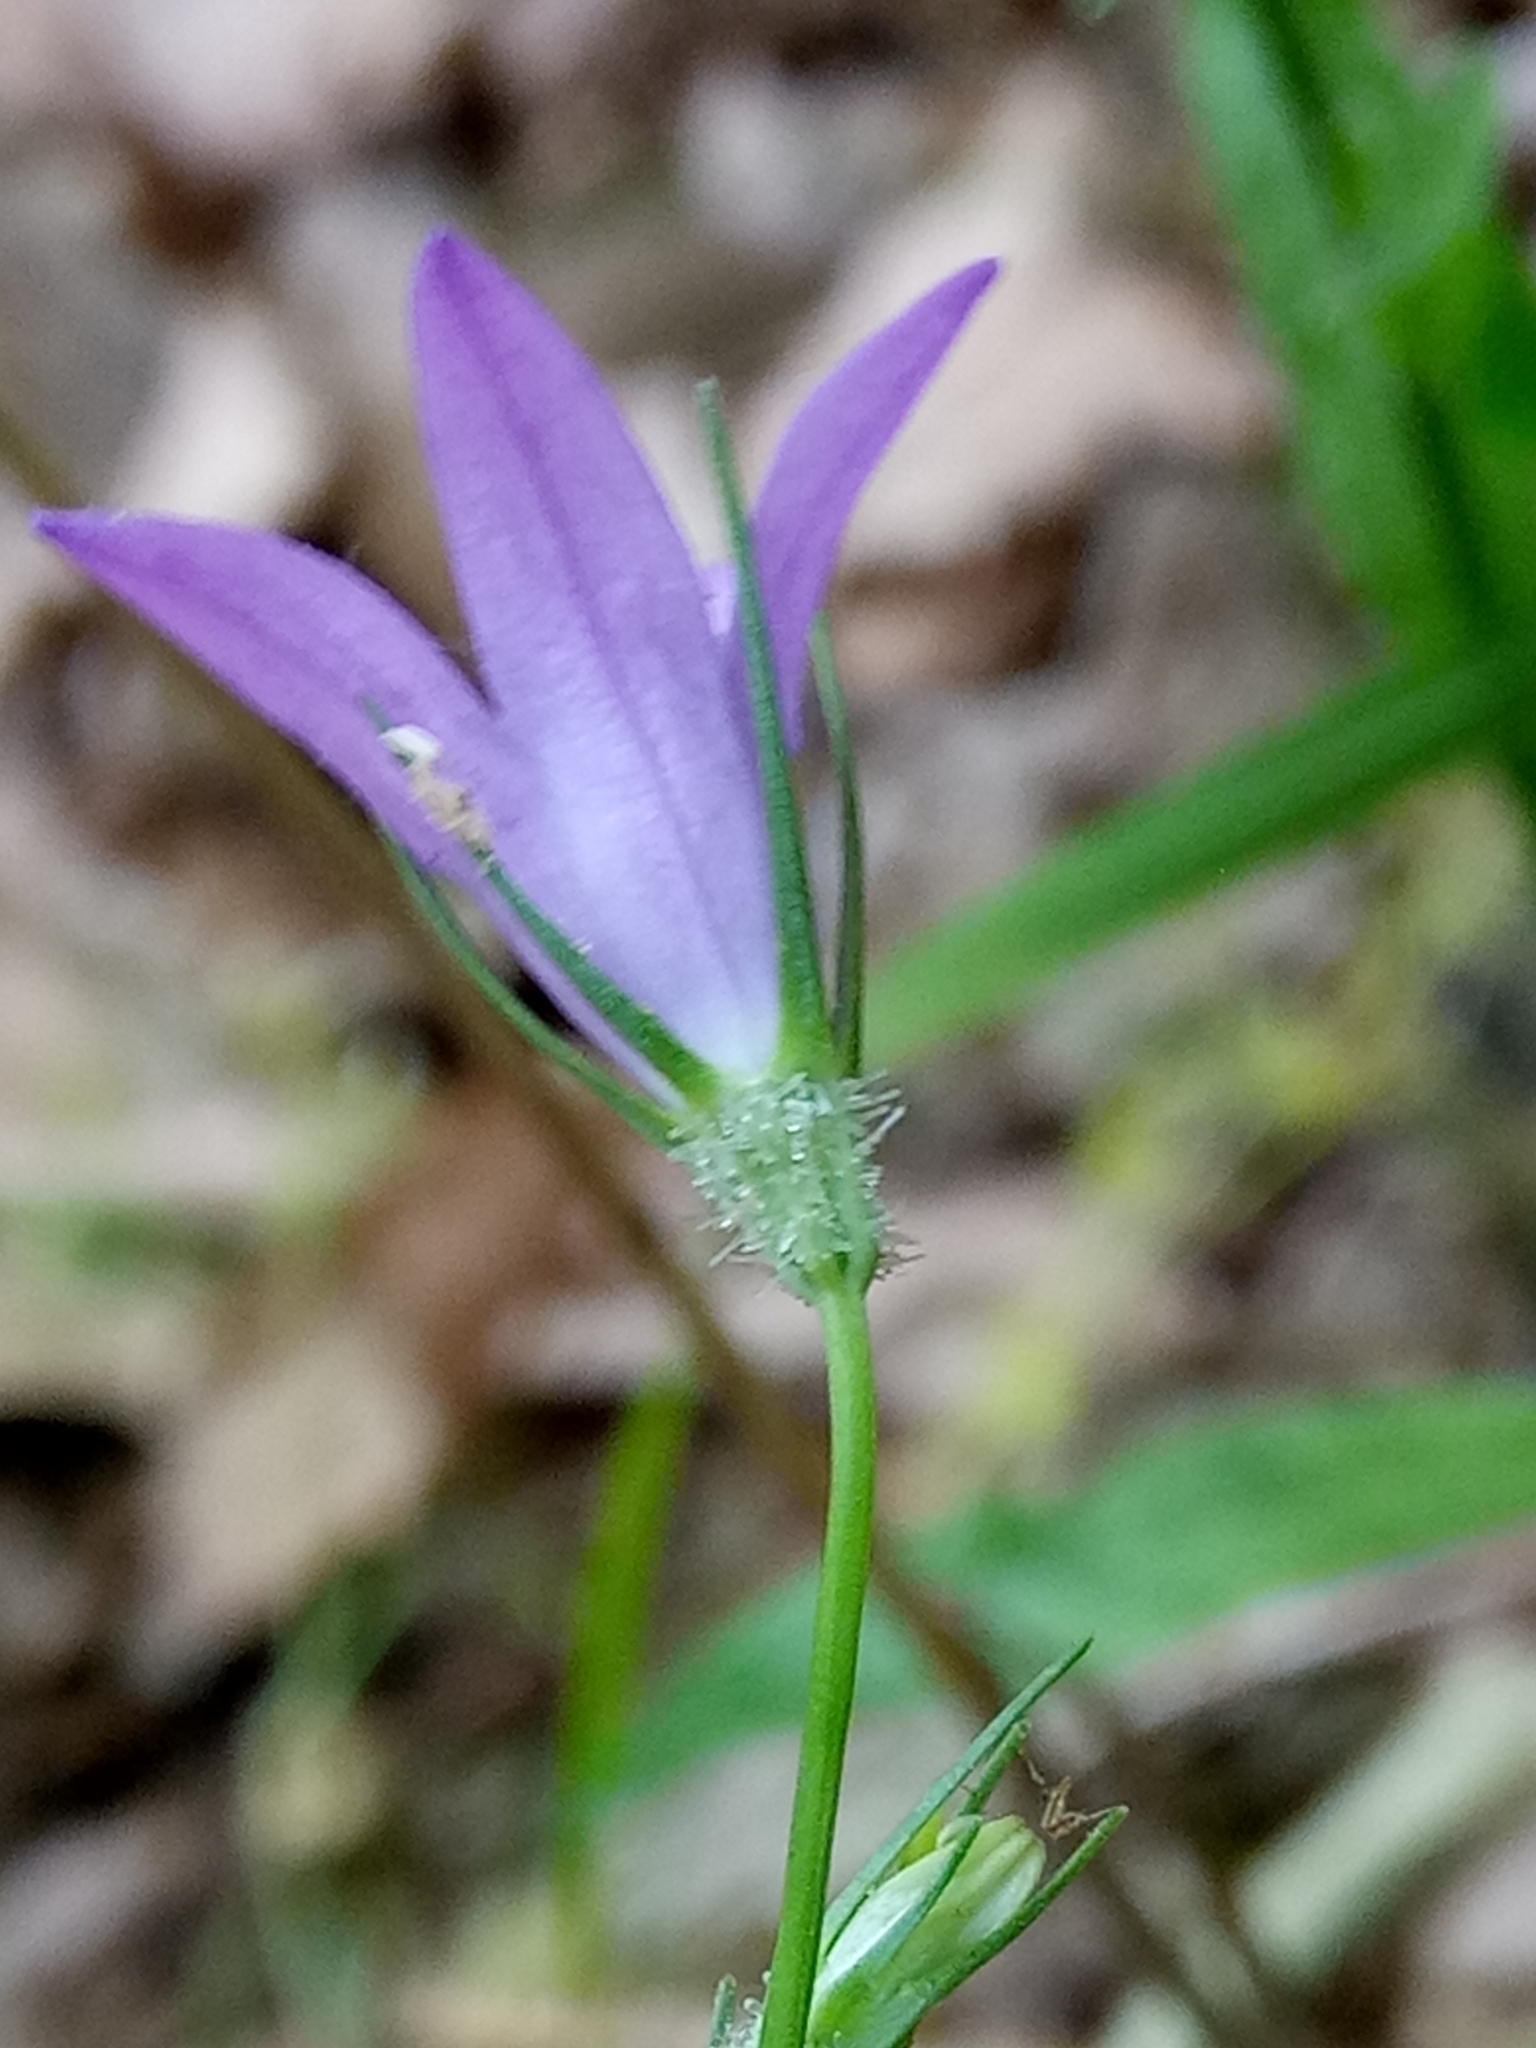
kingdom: Plantae
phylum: Tracheophyta
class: Magnoliopsida
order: Asterales
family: Campanulaceae
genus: Campanula
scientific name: Campanula rapunculus
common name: Rampion bellflower
